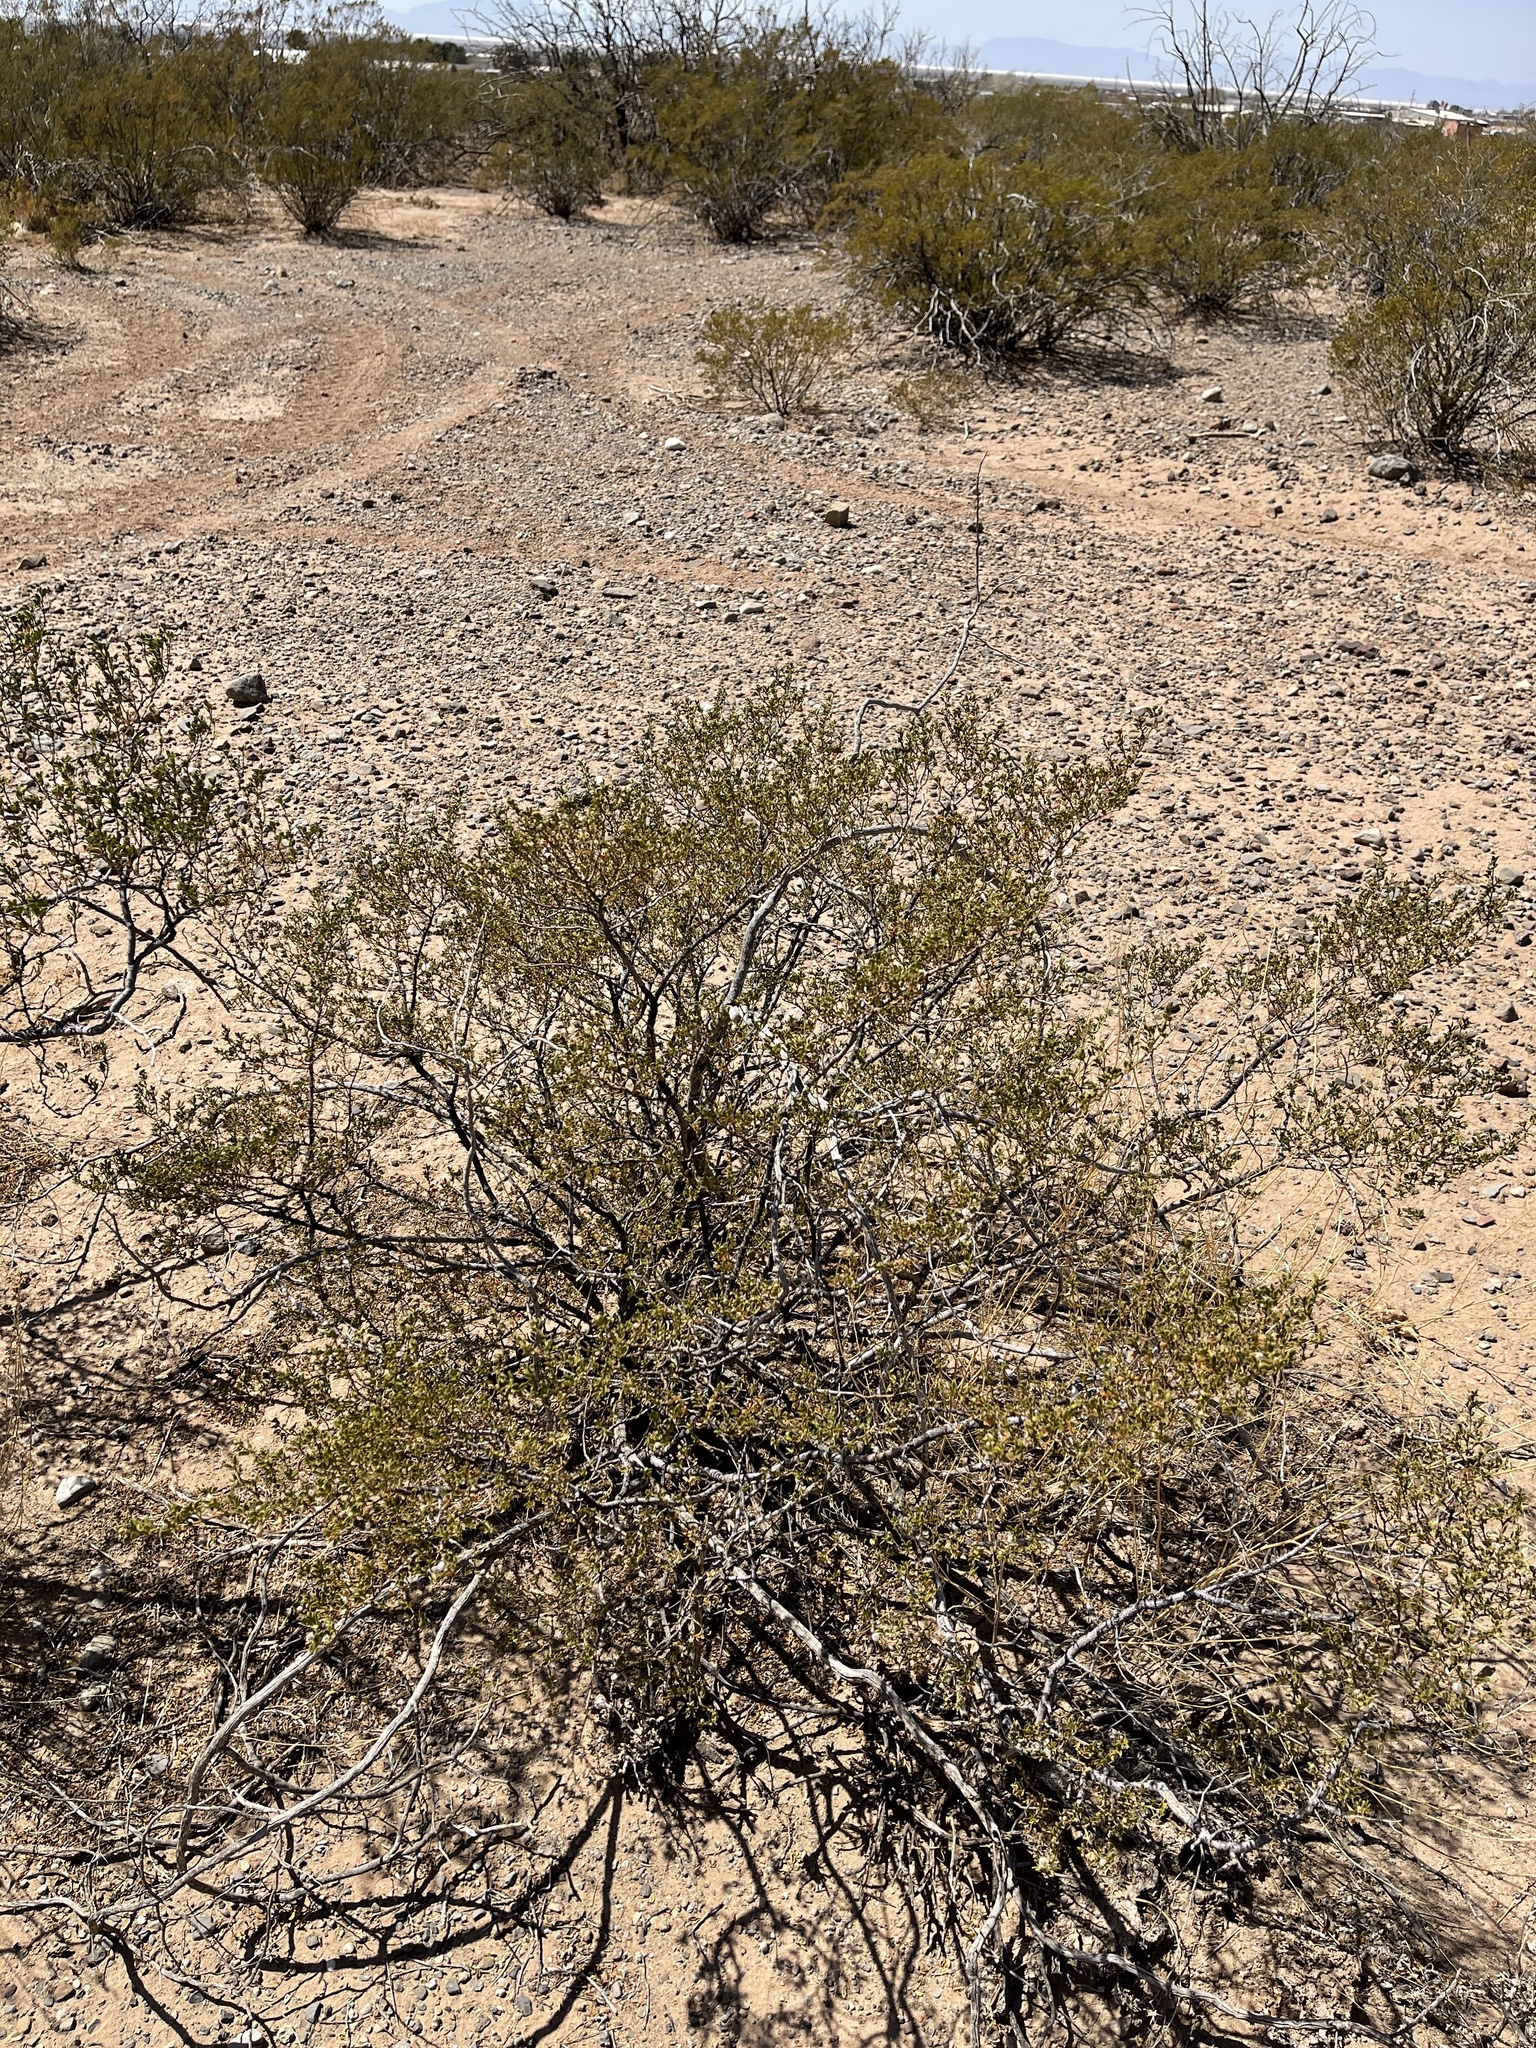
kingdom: Plantae
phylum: Tracheophyta
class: Magnoliopsida
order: Zygophyllales
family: Zygophyllaceae
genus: Larrea
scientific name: Larrea tridentata
